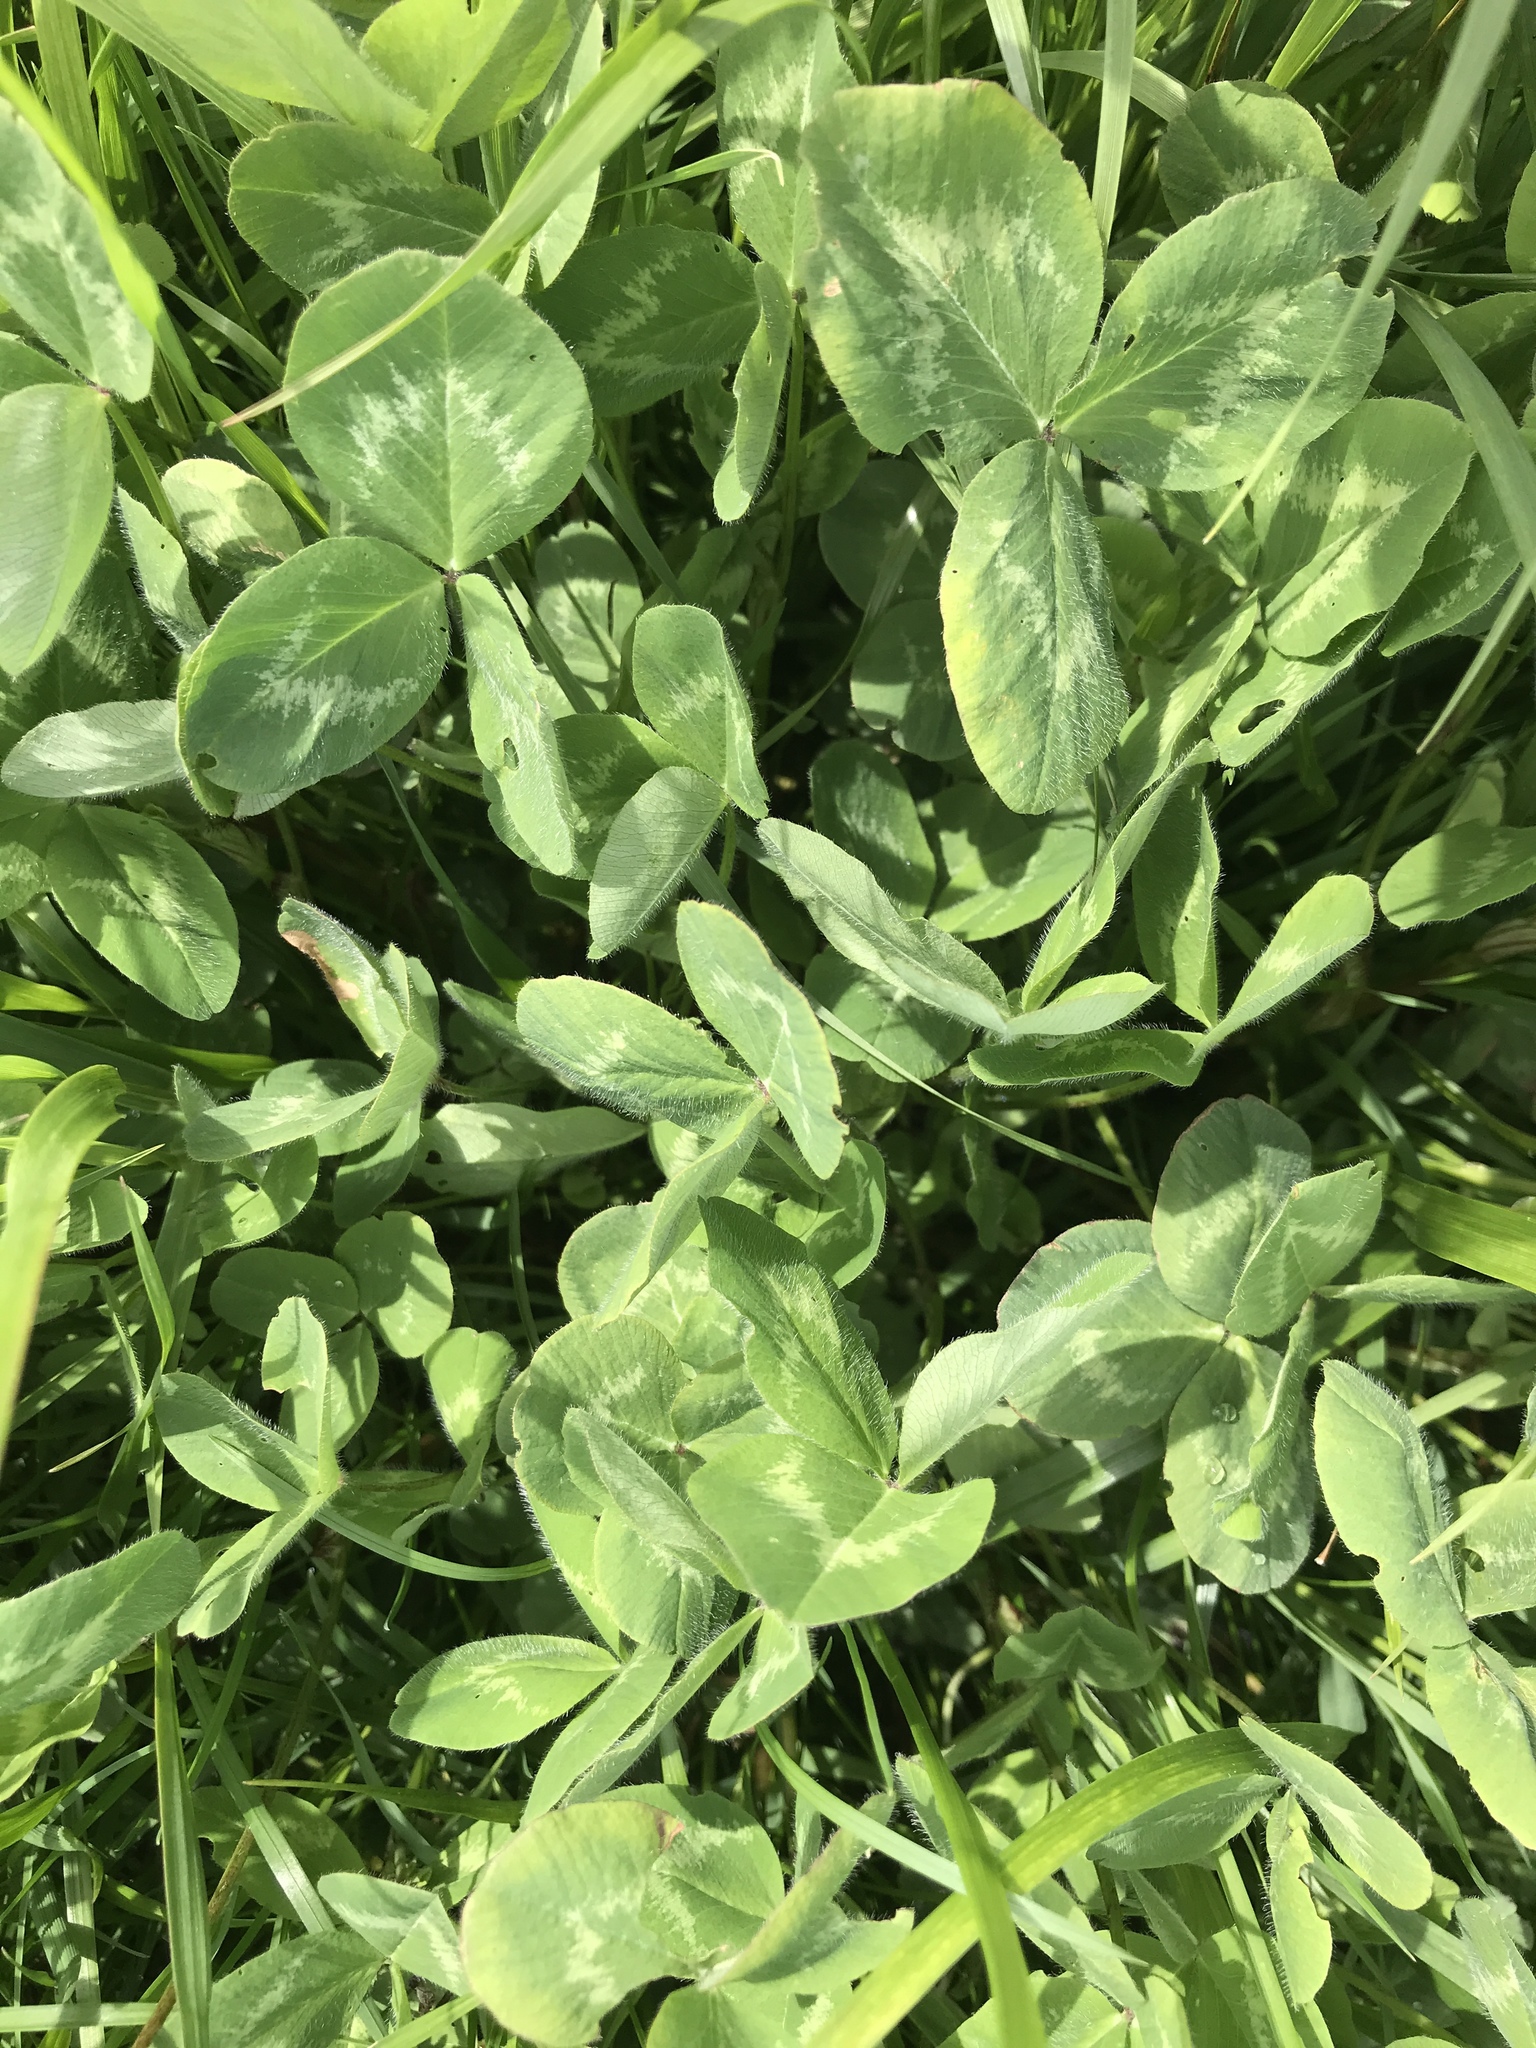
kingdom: Plantae
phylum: Tracheophyta
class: Magnoliopsida
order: Fabales
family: Fabaceae
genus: Trifolium
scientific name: Trifolium pratense
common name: Red clover
